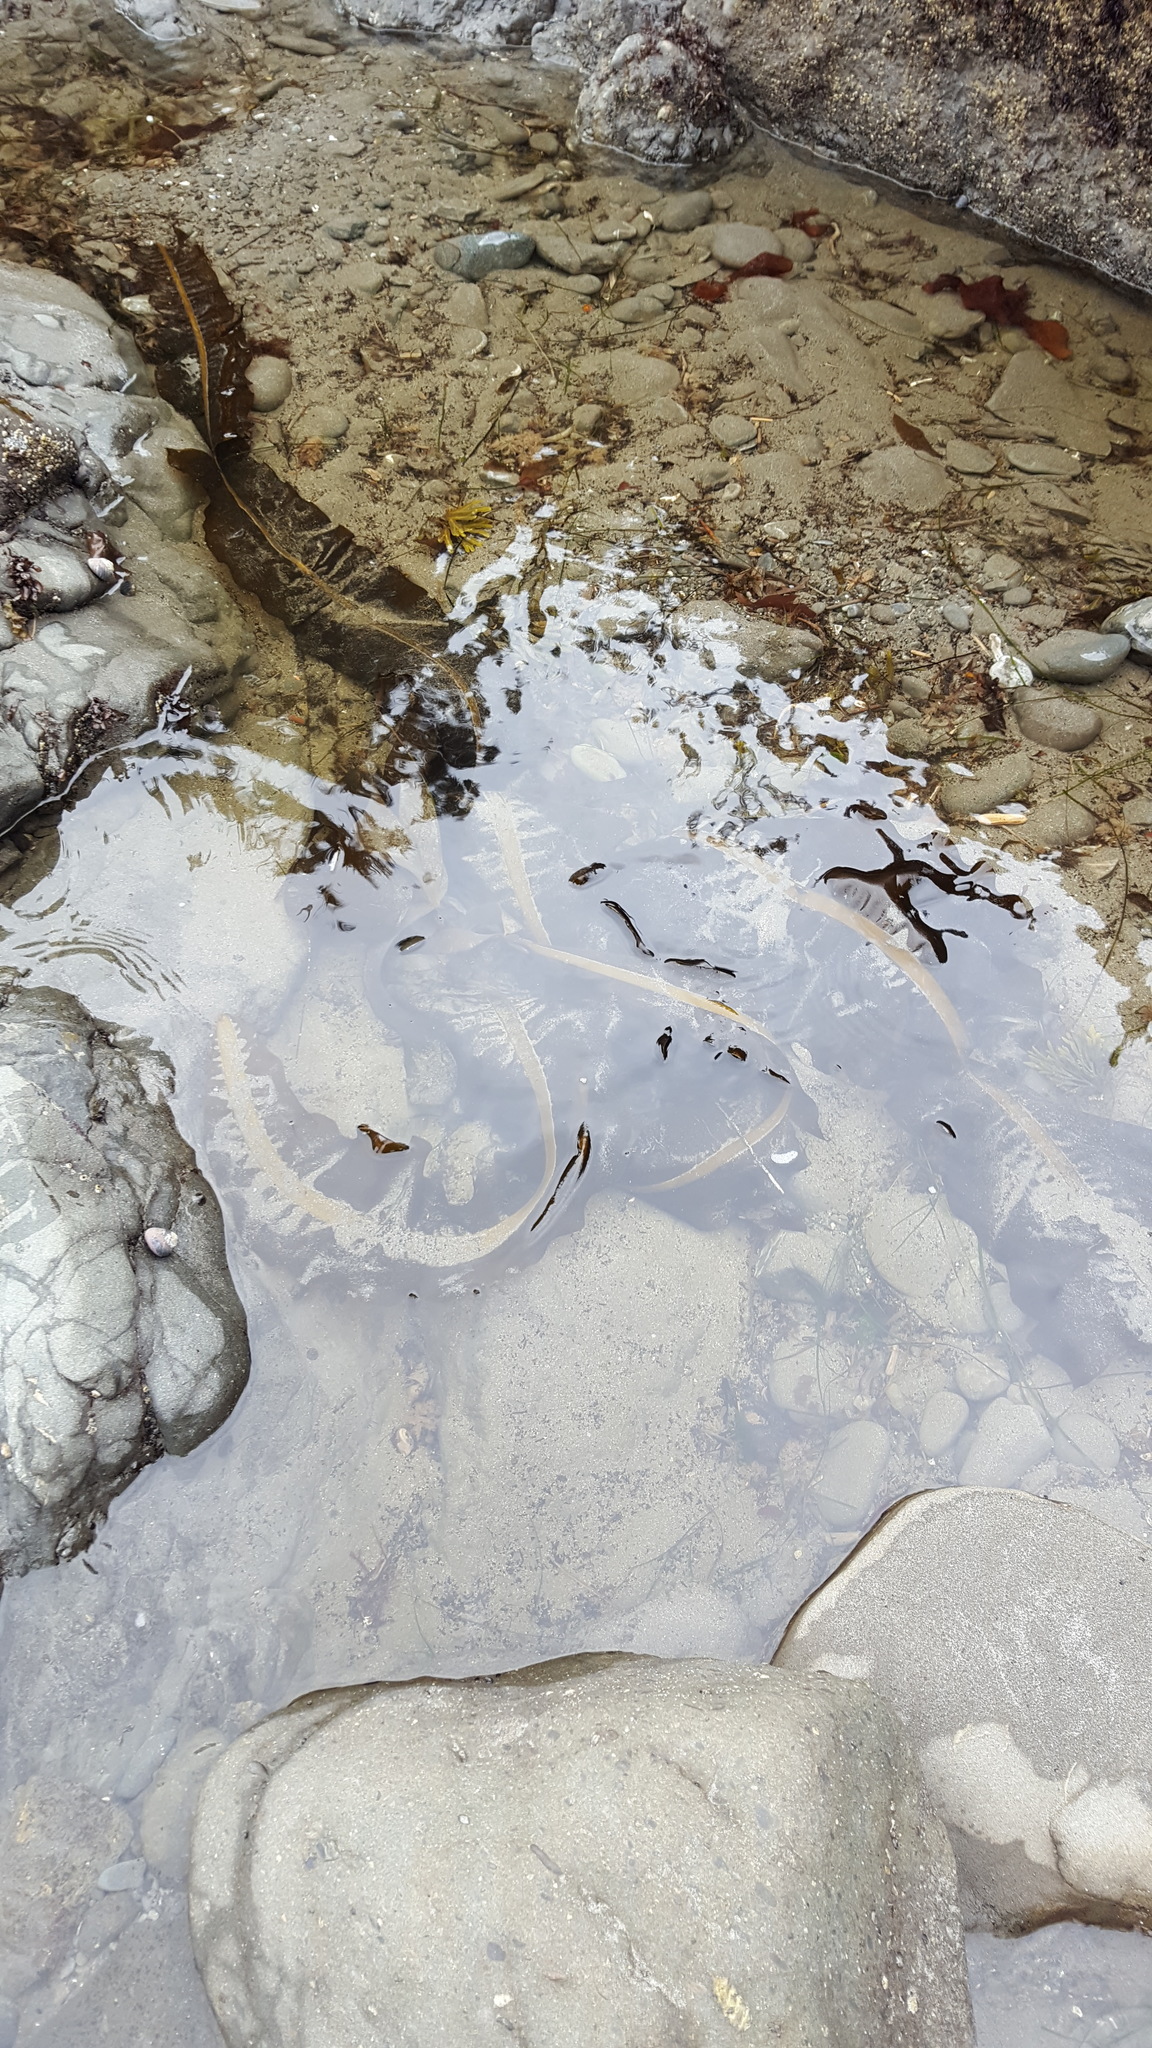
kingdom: Chromista
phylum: Ochrophyta
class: Phaeophyceae
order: Laminariales
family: Alariaceae
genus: Alaria
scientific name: Alaria marginata
